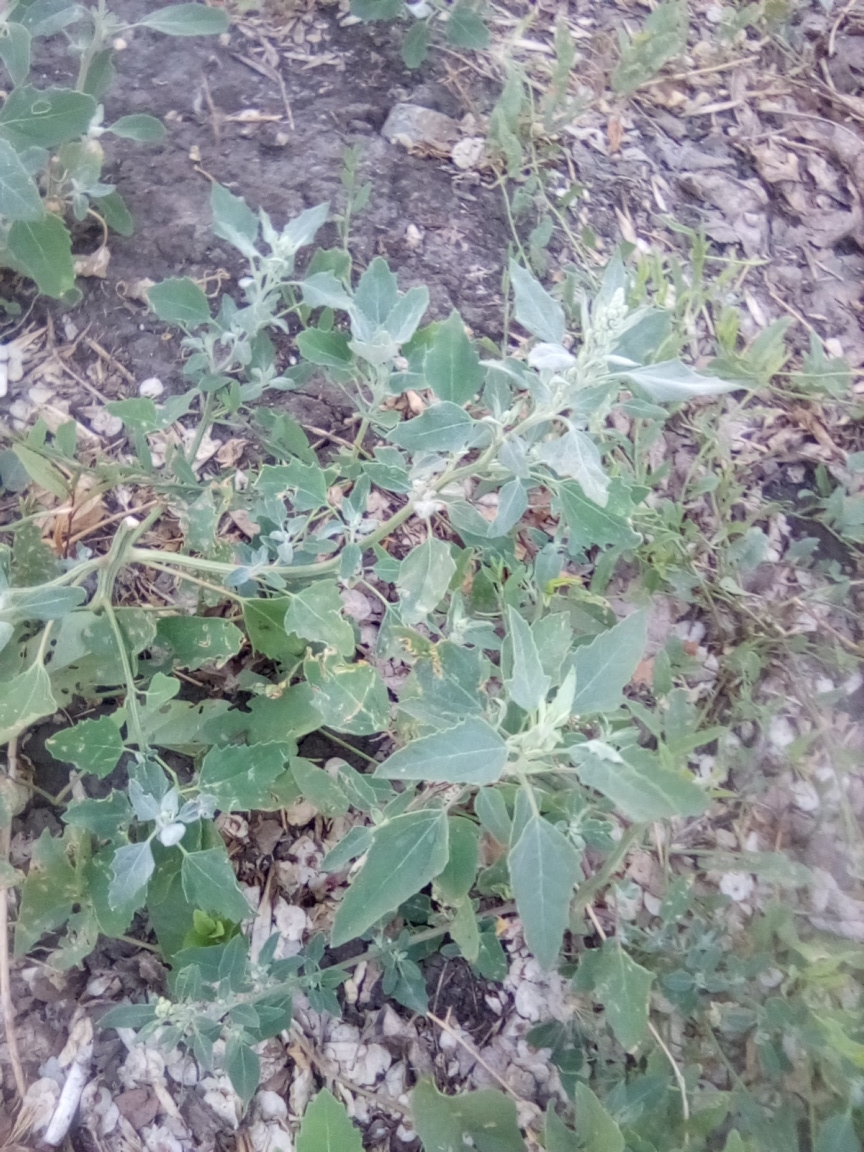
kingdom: Plantae
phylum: Tracheophyta
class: Magnoliopsida
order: Caryophyllales
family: Amaranthaceae
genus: Chenopodium
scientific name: Chenopodium album
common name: Fat-hen
